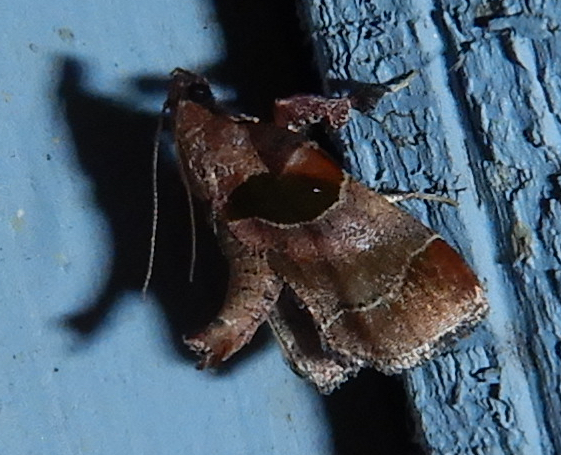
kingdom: Animalia
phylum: Arthropoda
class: Insecta
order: Lepidoptera
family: Pyralidae
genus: Tosale
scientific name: Tosale oviplagalis
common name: Dimorphic tosale moth
